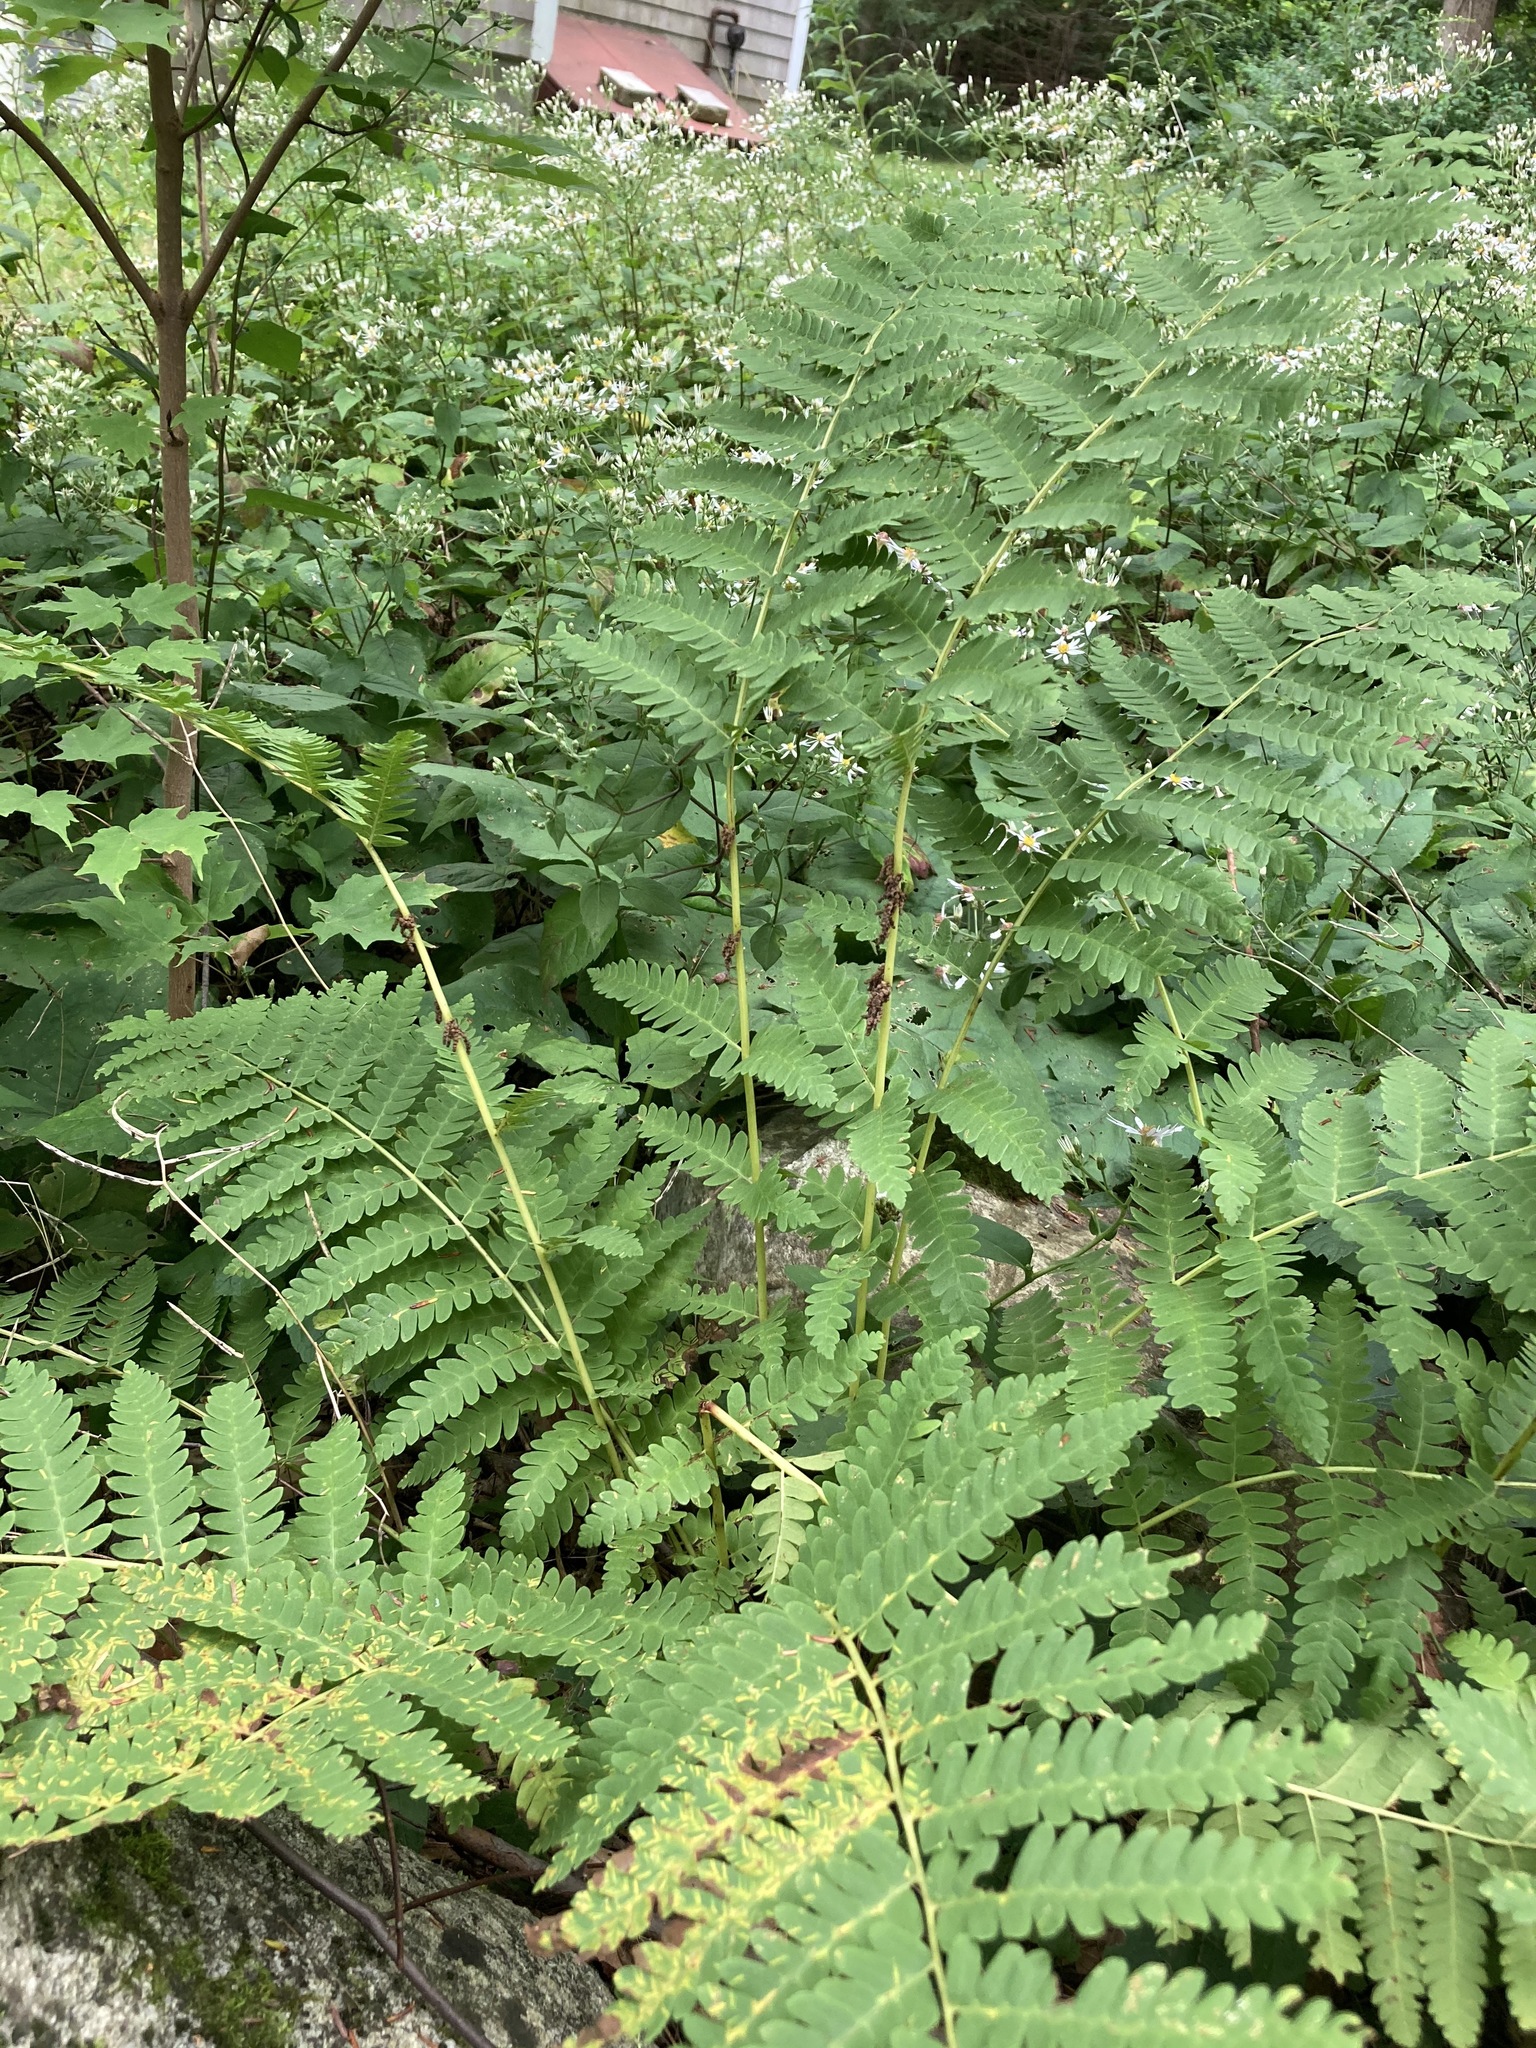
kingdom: Plantae
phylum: Tracheophyta
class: Polypodiopsida
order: Osmundales
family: Osmundaceae
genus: Claytosmunda
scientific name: Claytosmunda claytoniana
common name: Clayton's fern
